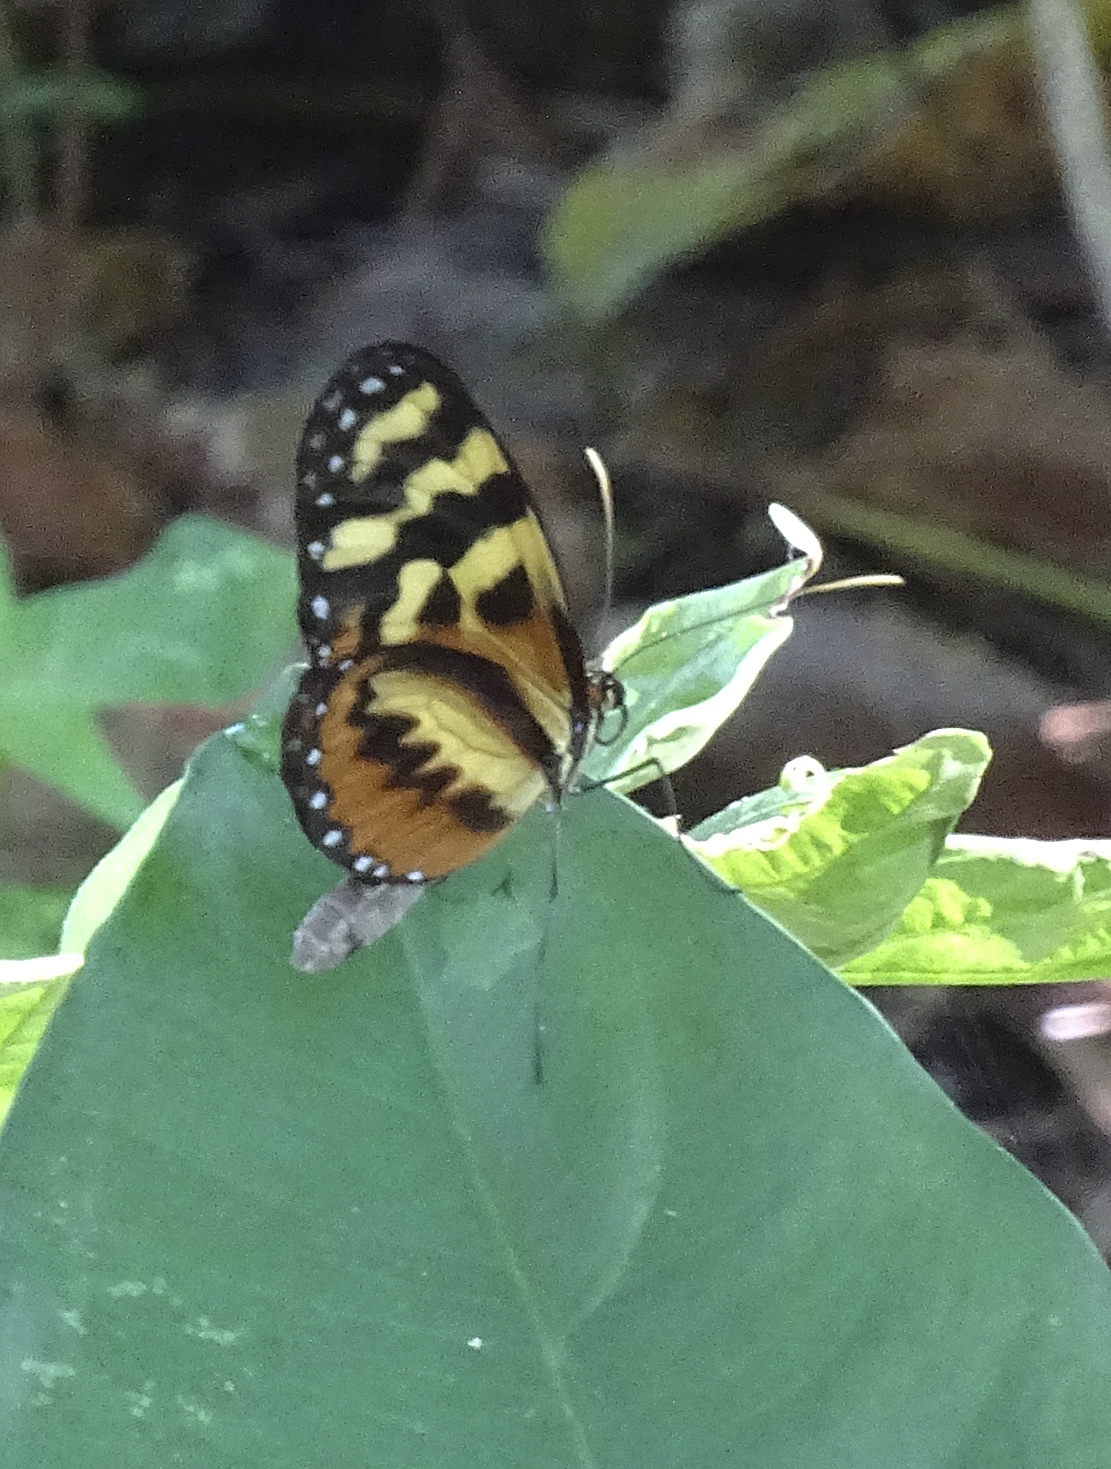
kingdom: Animalia
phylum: Arthropoda
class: Insecta
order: Lepidoptera
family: Nymphalidae
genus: Mechanitis
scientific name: Mechanitis polymnia
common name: Disturbed tigerwing
